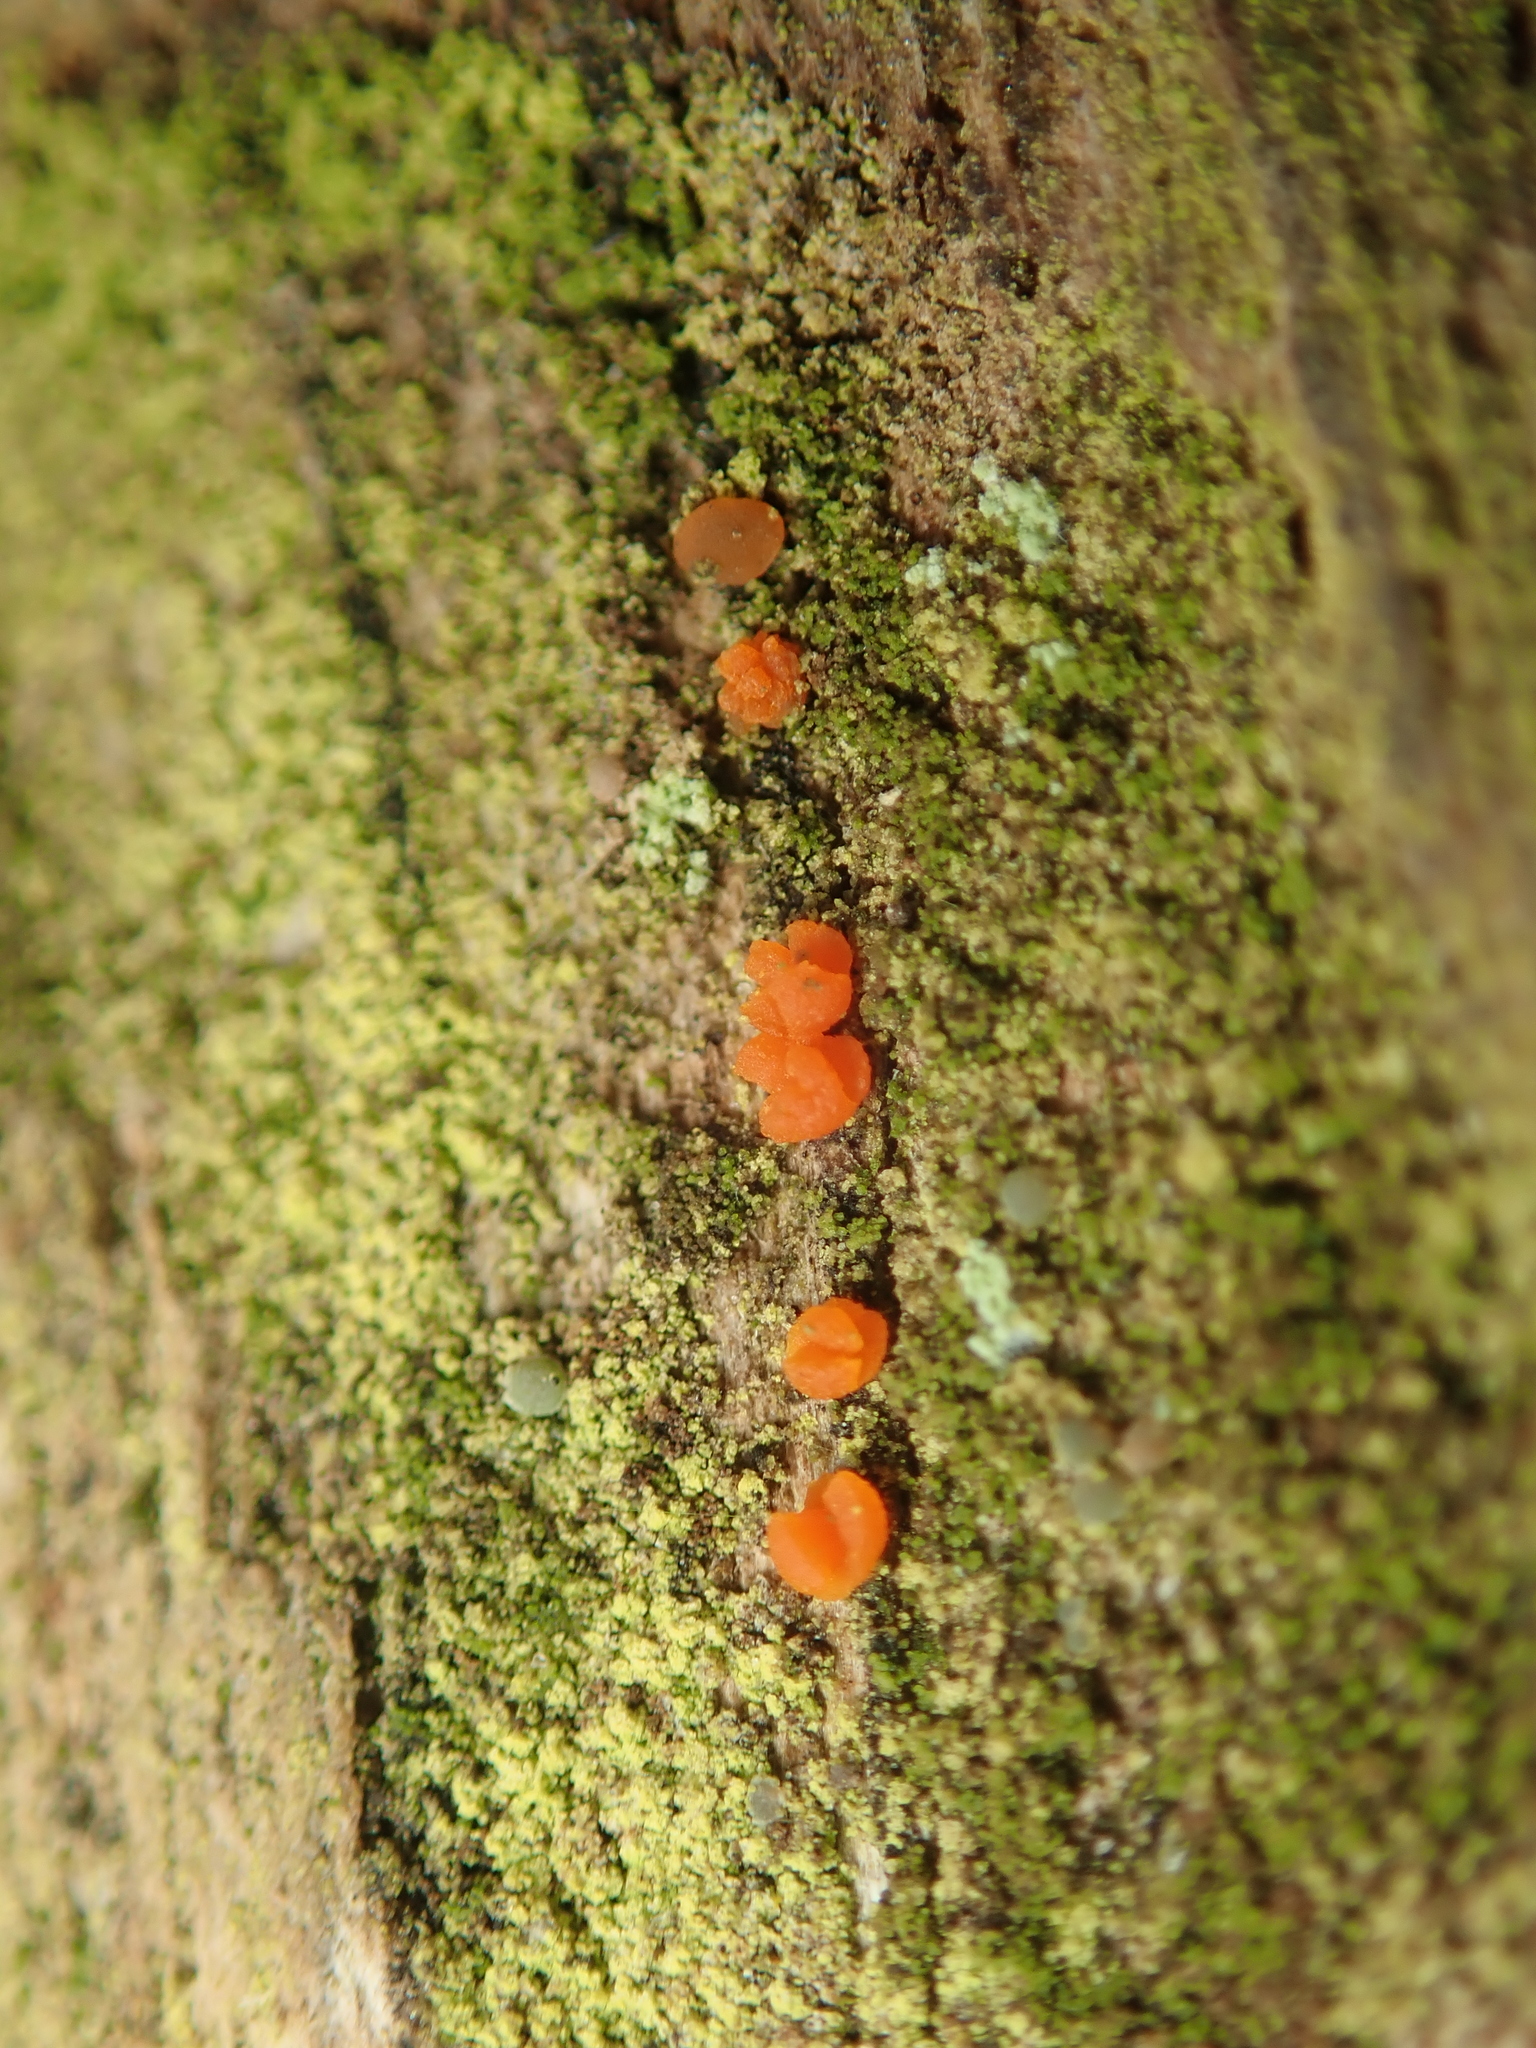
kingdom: Fungi
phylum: Basidiomycota
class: Dacrymycetes
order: Dacrymycetales
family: Dacrymycetaceae
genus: Dacrymyces
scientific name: Dacrymyces stillatus
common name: Common jelly spot
